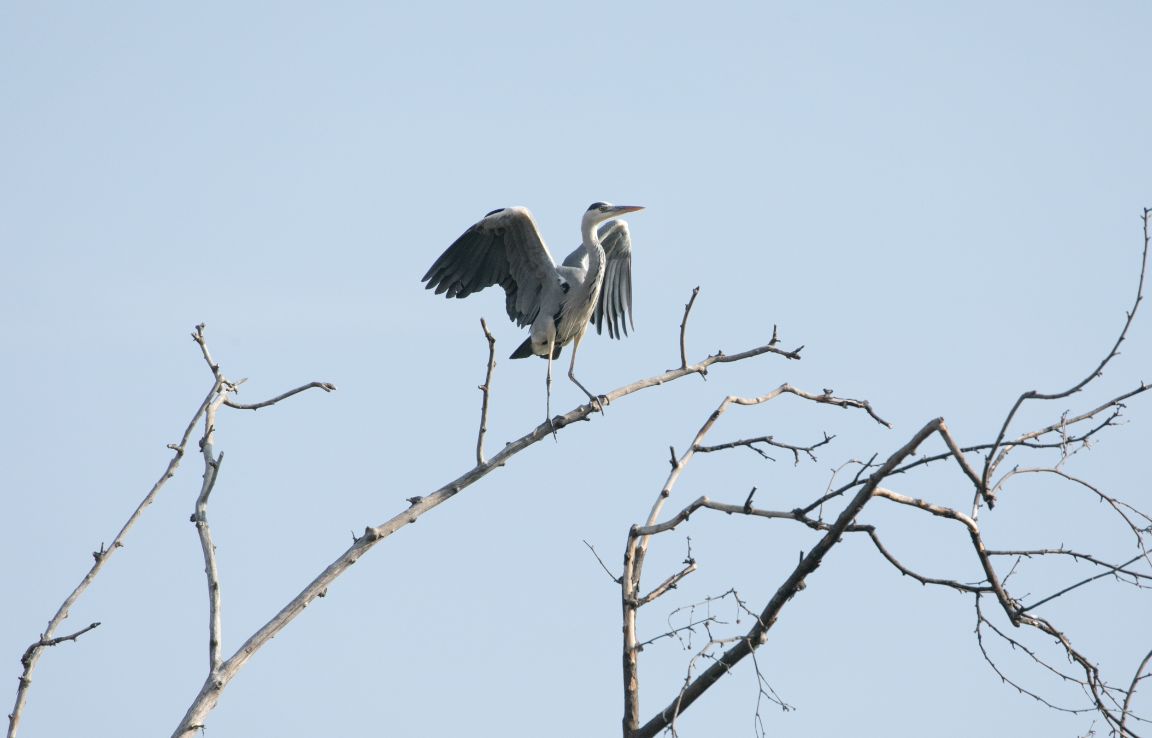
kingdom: Animalia
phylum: Chordata
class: Aves
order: Pelecaniformes
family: Ardeidae
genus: Ardea
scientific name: Ardea cinerea
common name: Grey heron
